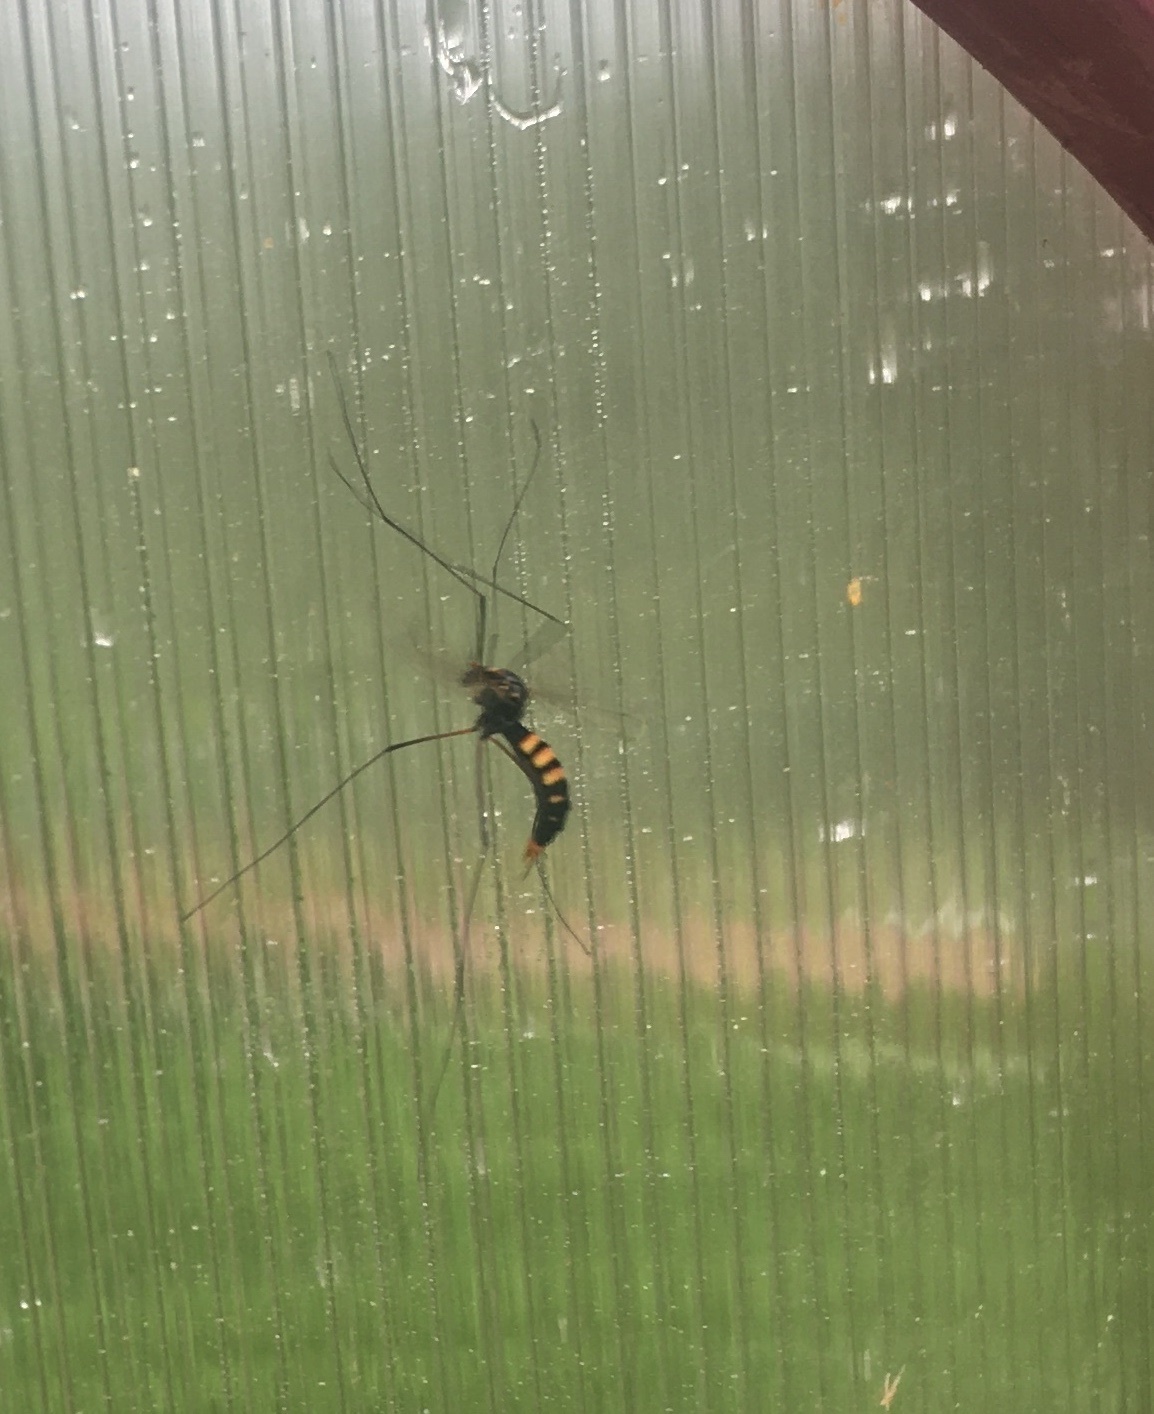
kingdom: Animalia
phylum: Arthropoda
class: Insecta
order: Diptera
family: Tipulidae
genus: Nephrotoma
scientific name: Nephrotoma crocata
